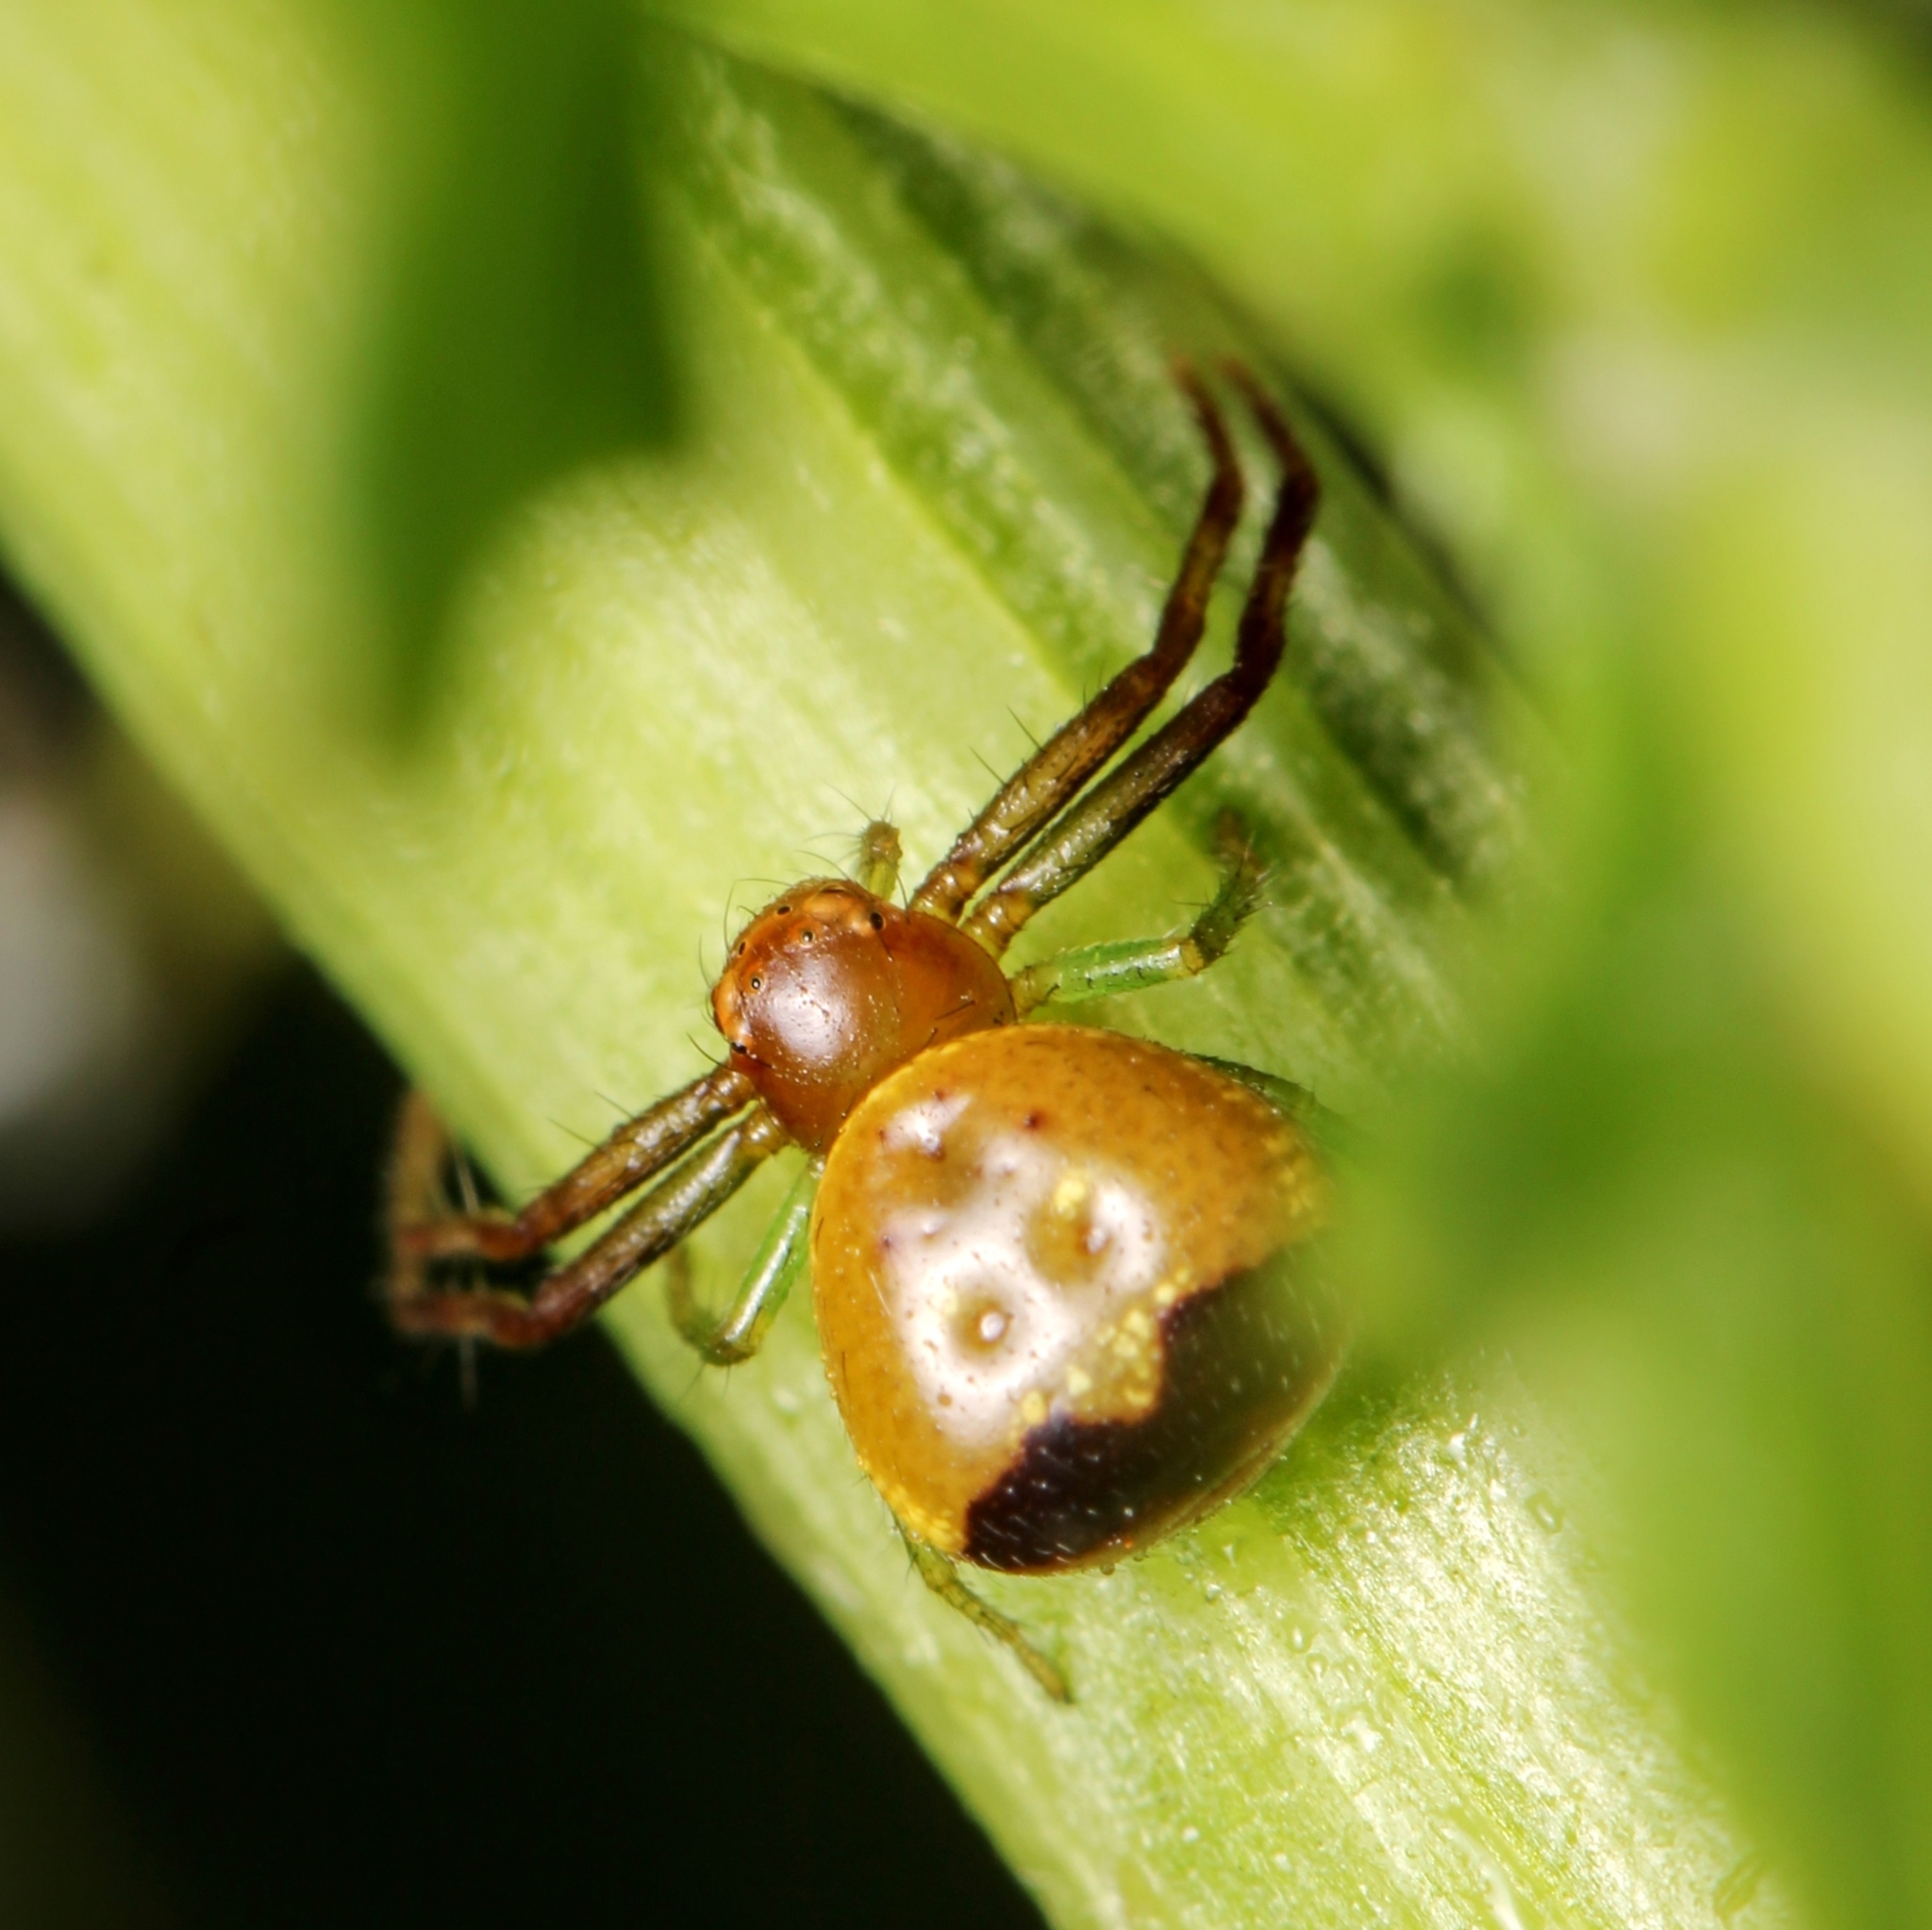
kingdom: Animalia
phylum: Arthropoda
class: Arachnida
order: Araneae
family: Thomisidae
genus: Synema
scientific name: Synema parvulum
